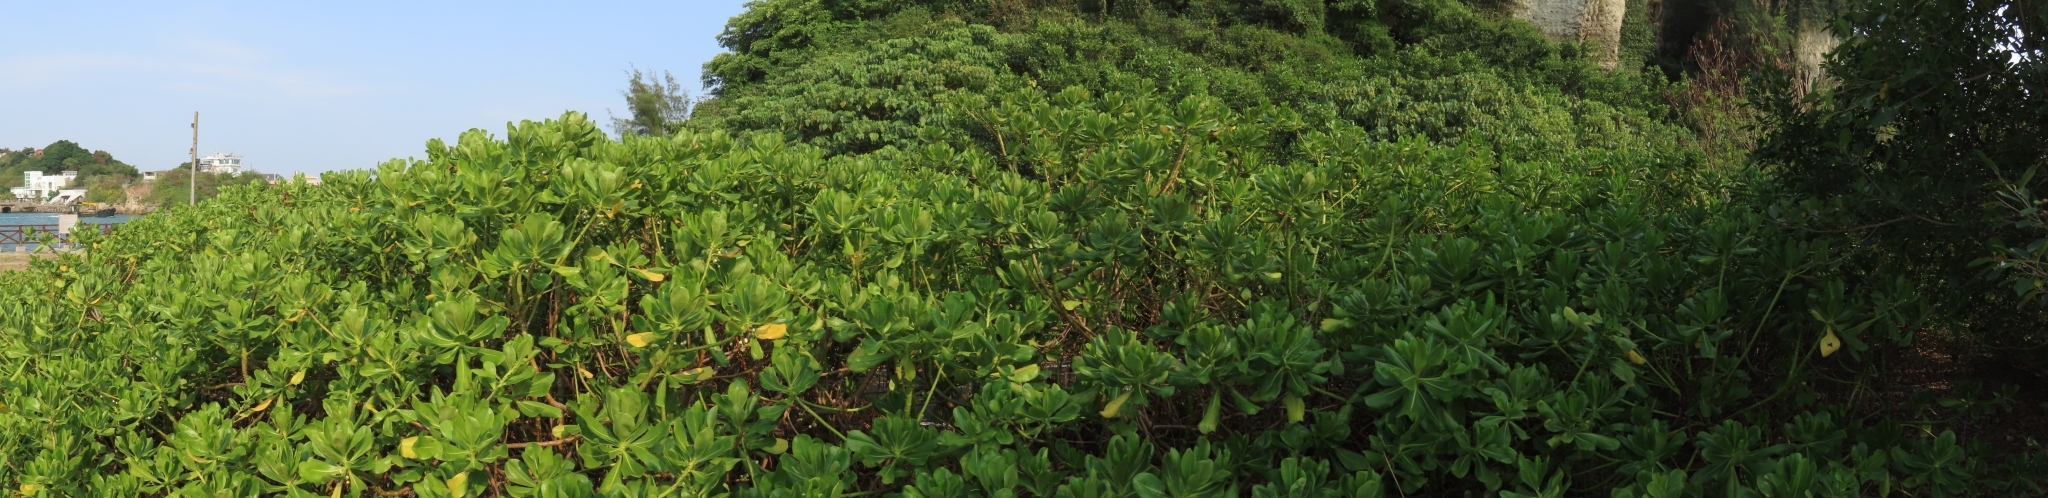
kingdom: Plantae
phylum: Tracheophyta
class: Magnoliopsida
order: Asterales
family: Goodeniaceae
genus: Scaevola
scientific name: Scaevola taccada
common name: Sea lettucetree
